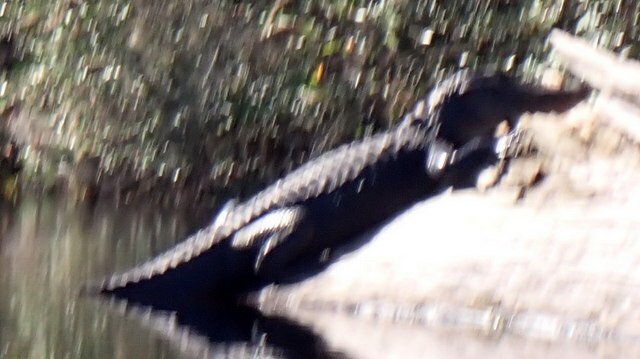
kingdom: Animalia
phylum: Chordata
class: Crocodylia
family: Alligatoridae
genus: Alligator
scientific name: Alligator mississippiensis
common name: American alligator
